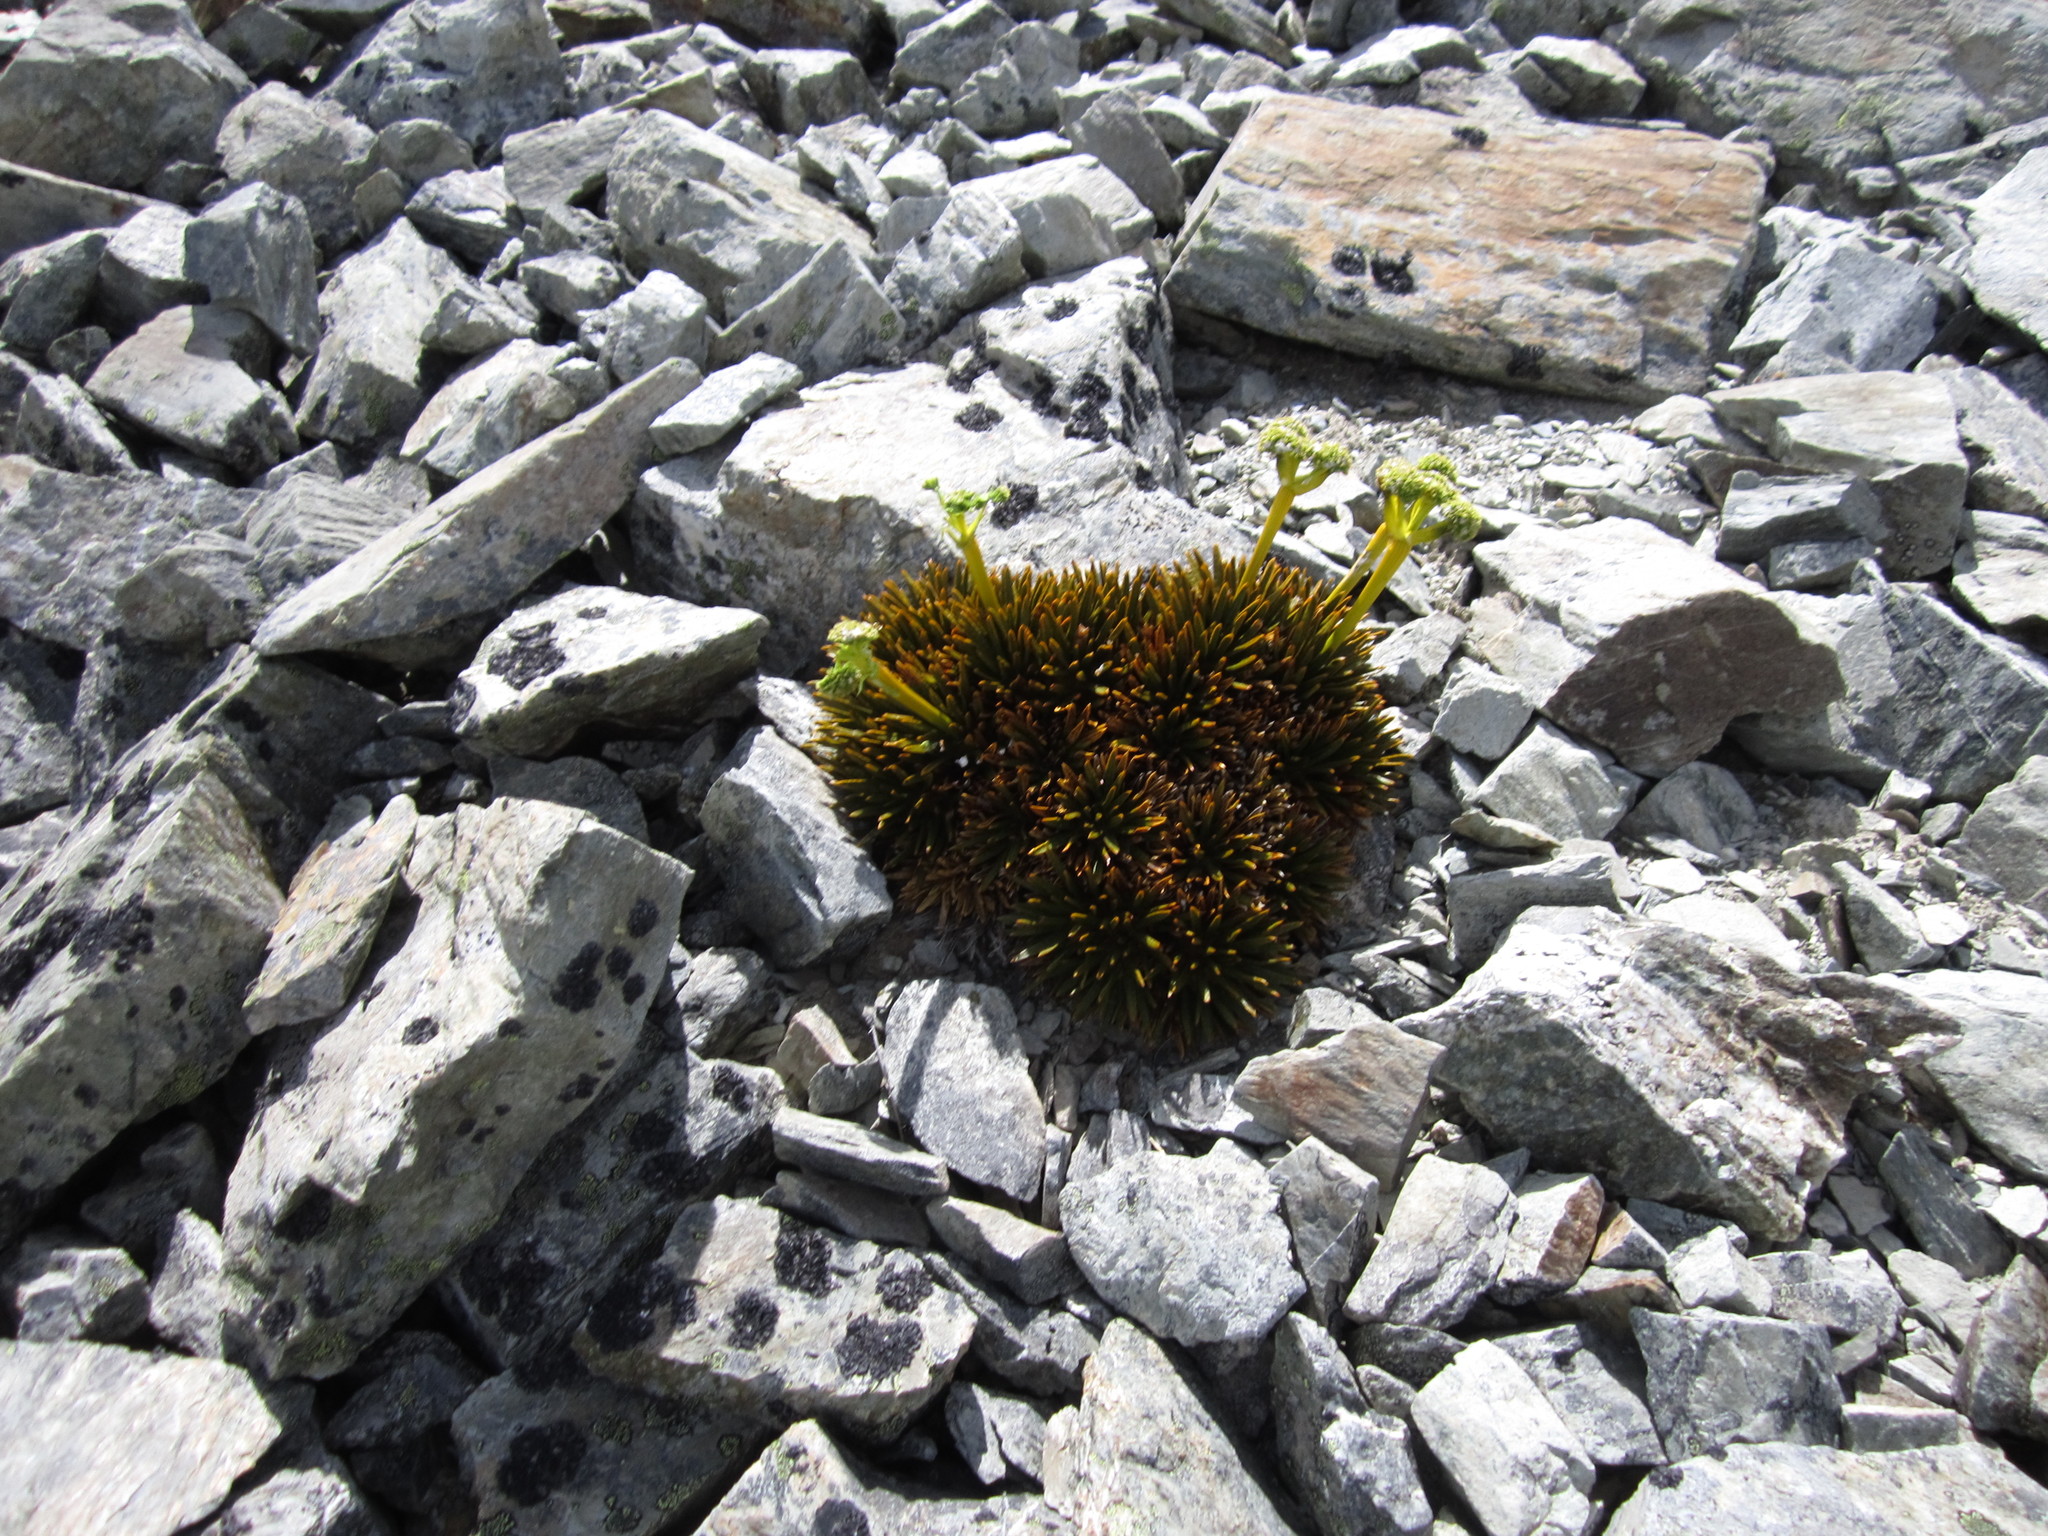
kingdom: Plantae
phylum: Tracheophyta
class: Magnoliopsida
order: Apiales
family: Apiaceae
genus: Aciphylla
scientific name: Aciphylla dobsonii
